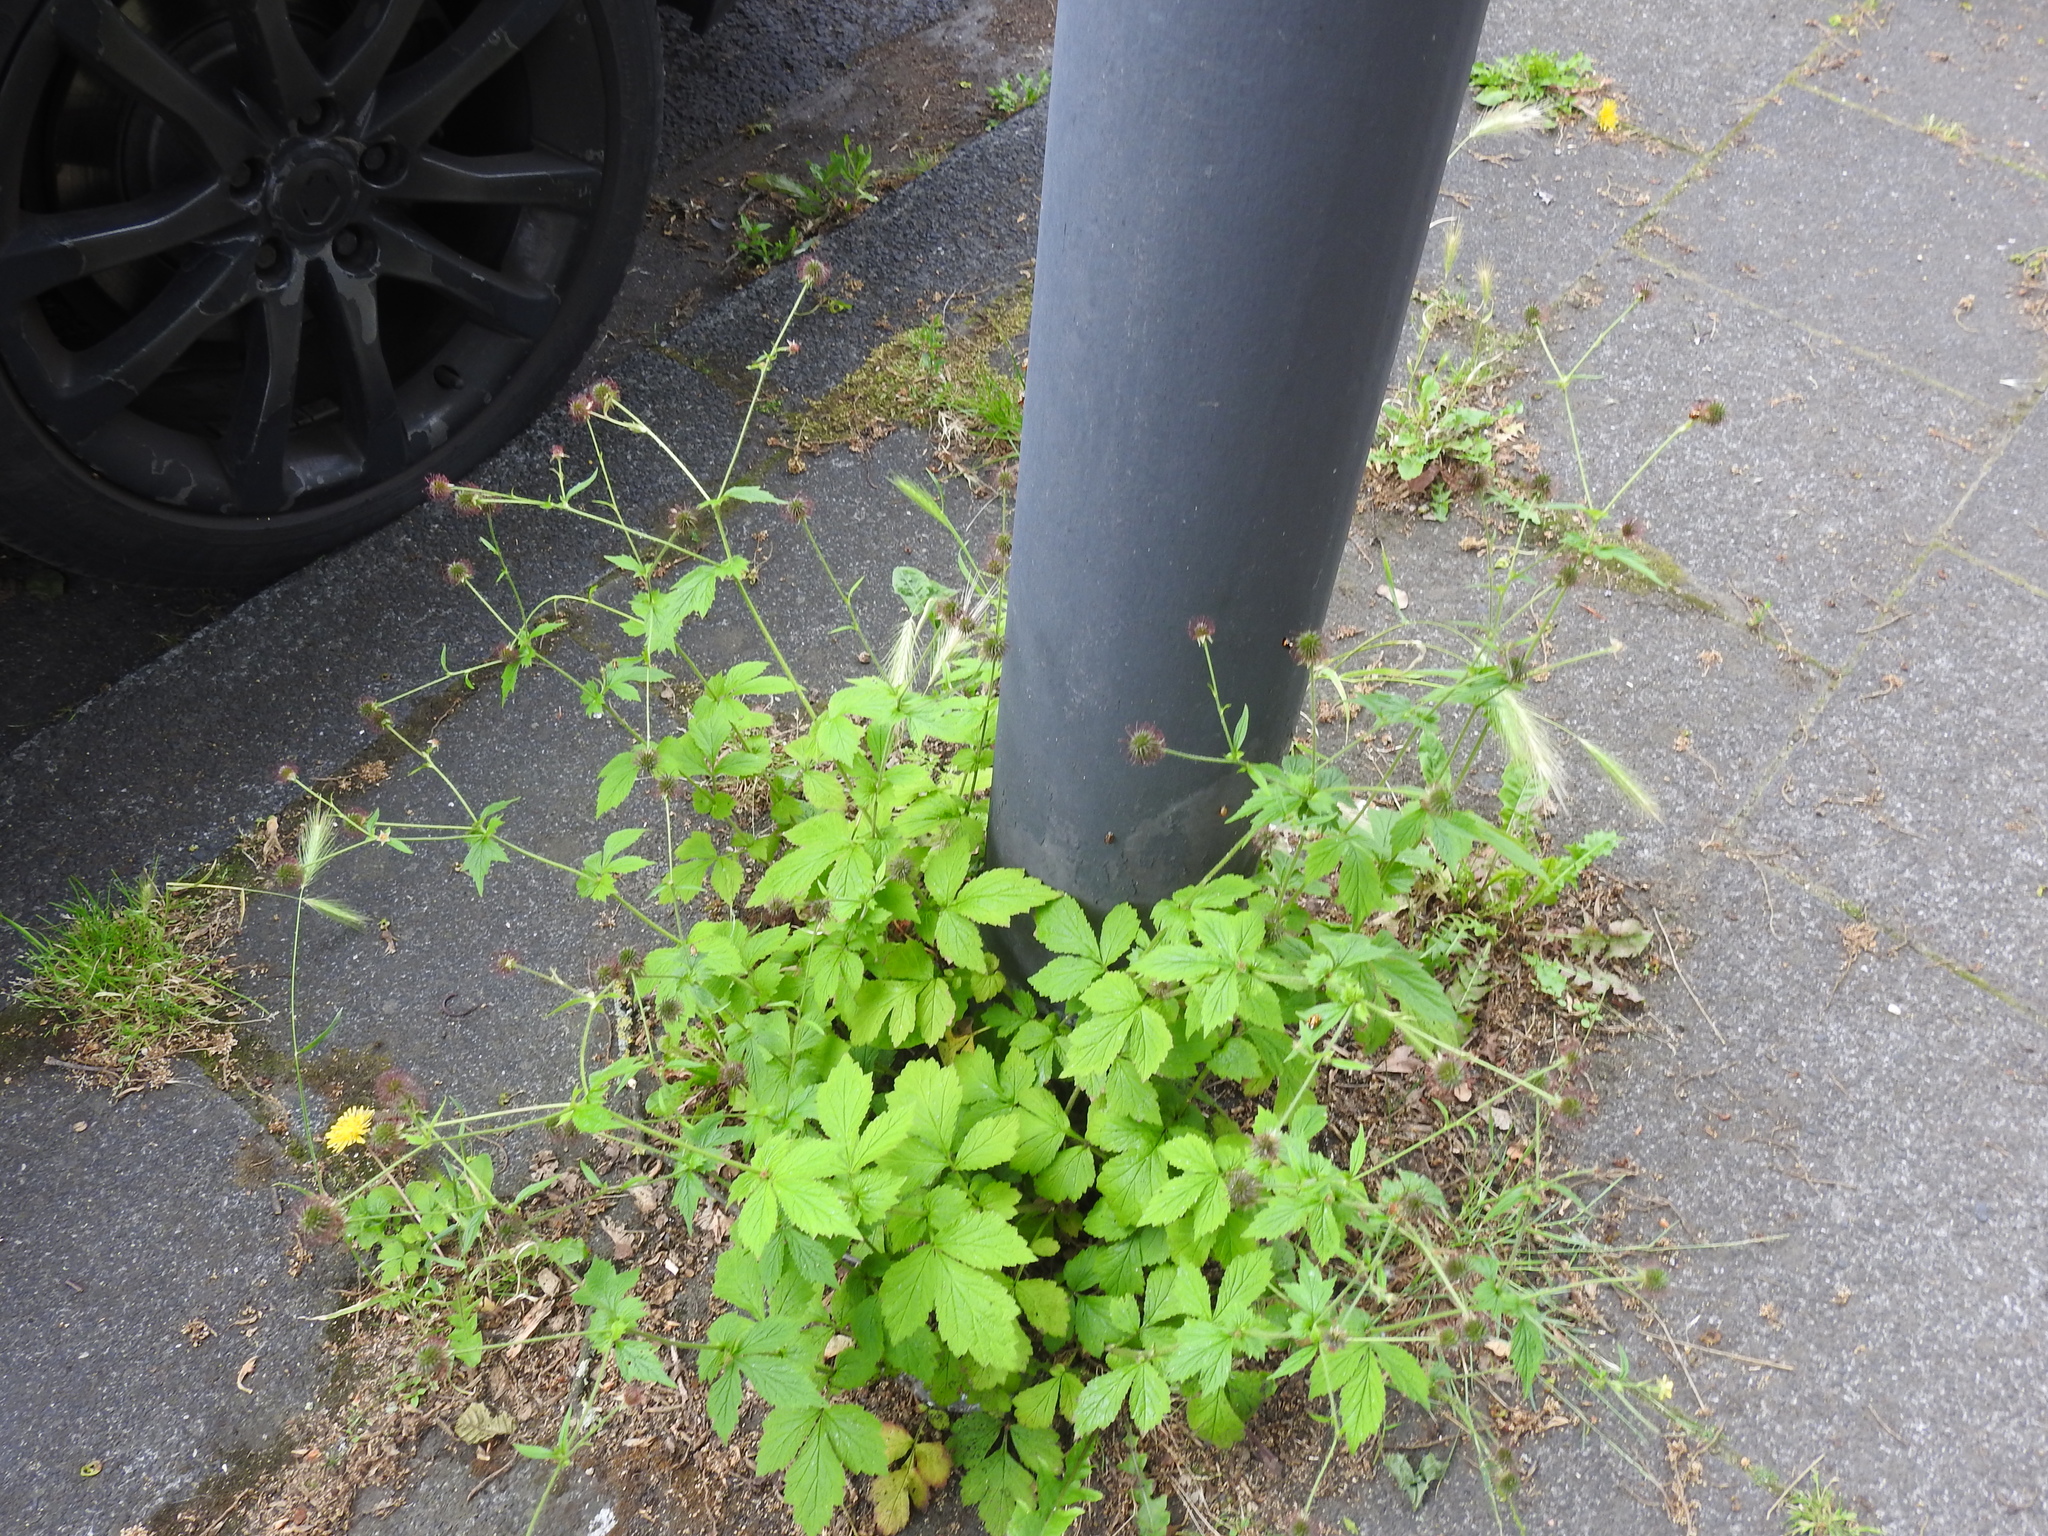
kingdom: Plantae
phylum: Tracheophyta
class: Magnoliopsida
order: Rosales
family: Rosaceae
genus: Geum
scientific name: Geum urbanum
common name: Wood avens
